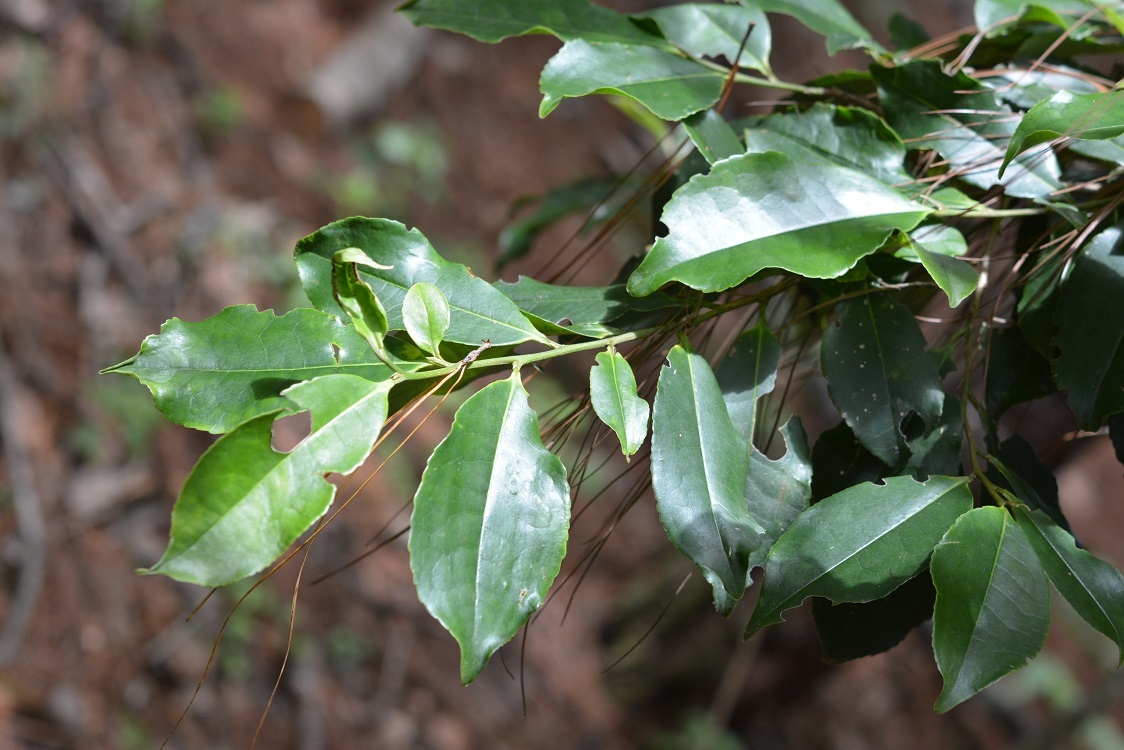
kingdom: Plantae
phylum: Tracheophyta
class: Magnoliopsida
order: Ericales
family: Pentaphylacaceae
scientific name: Pentaphylacaceae
